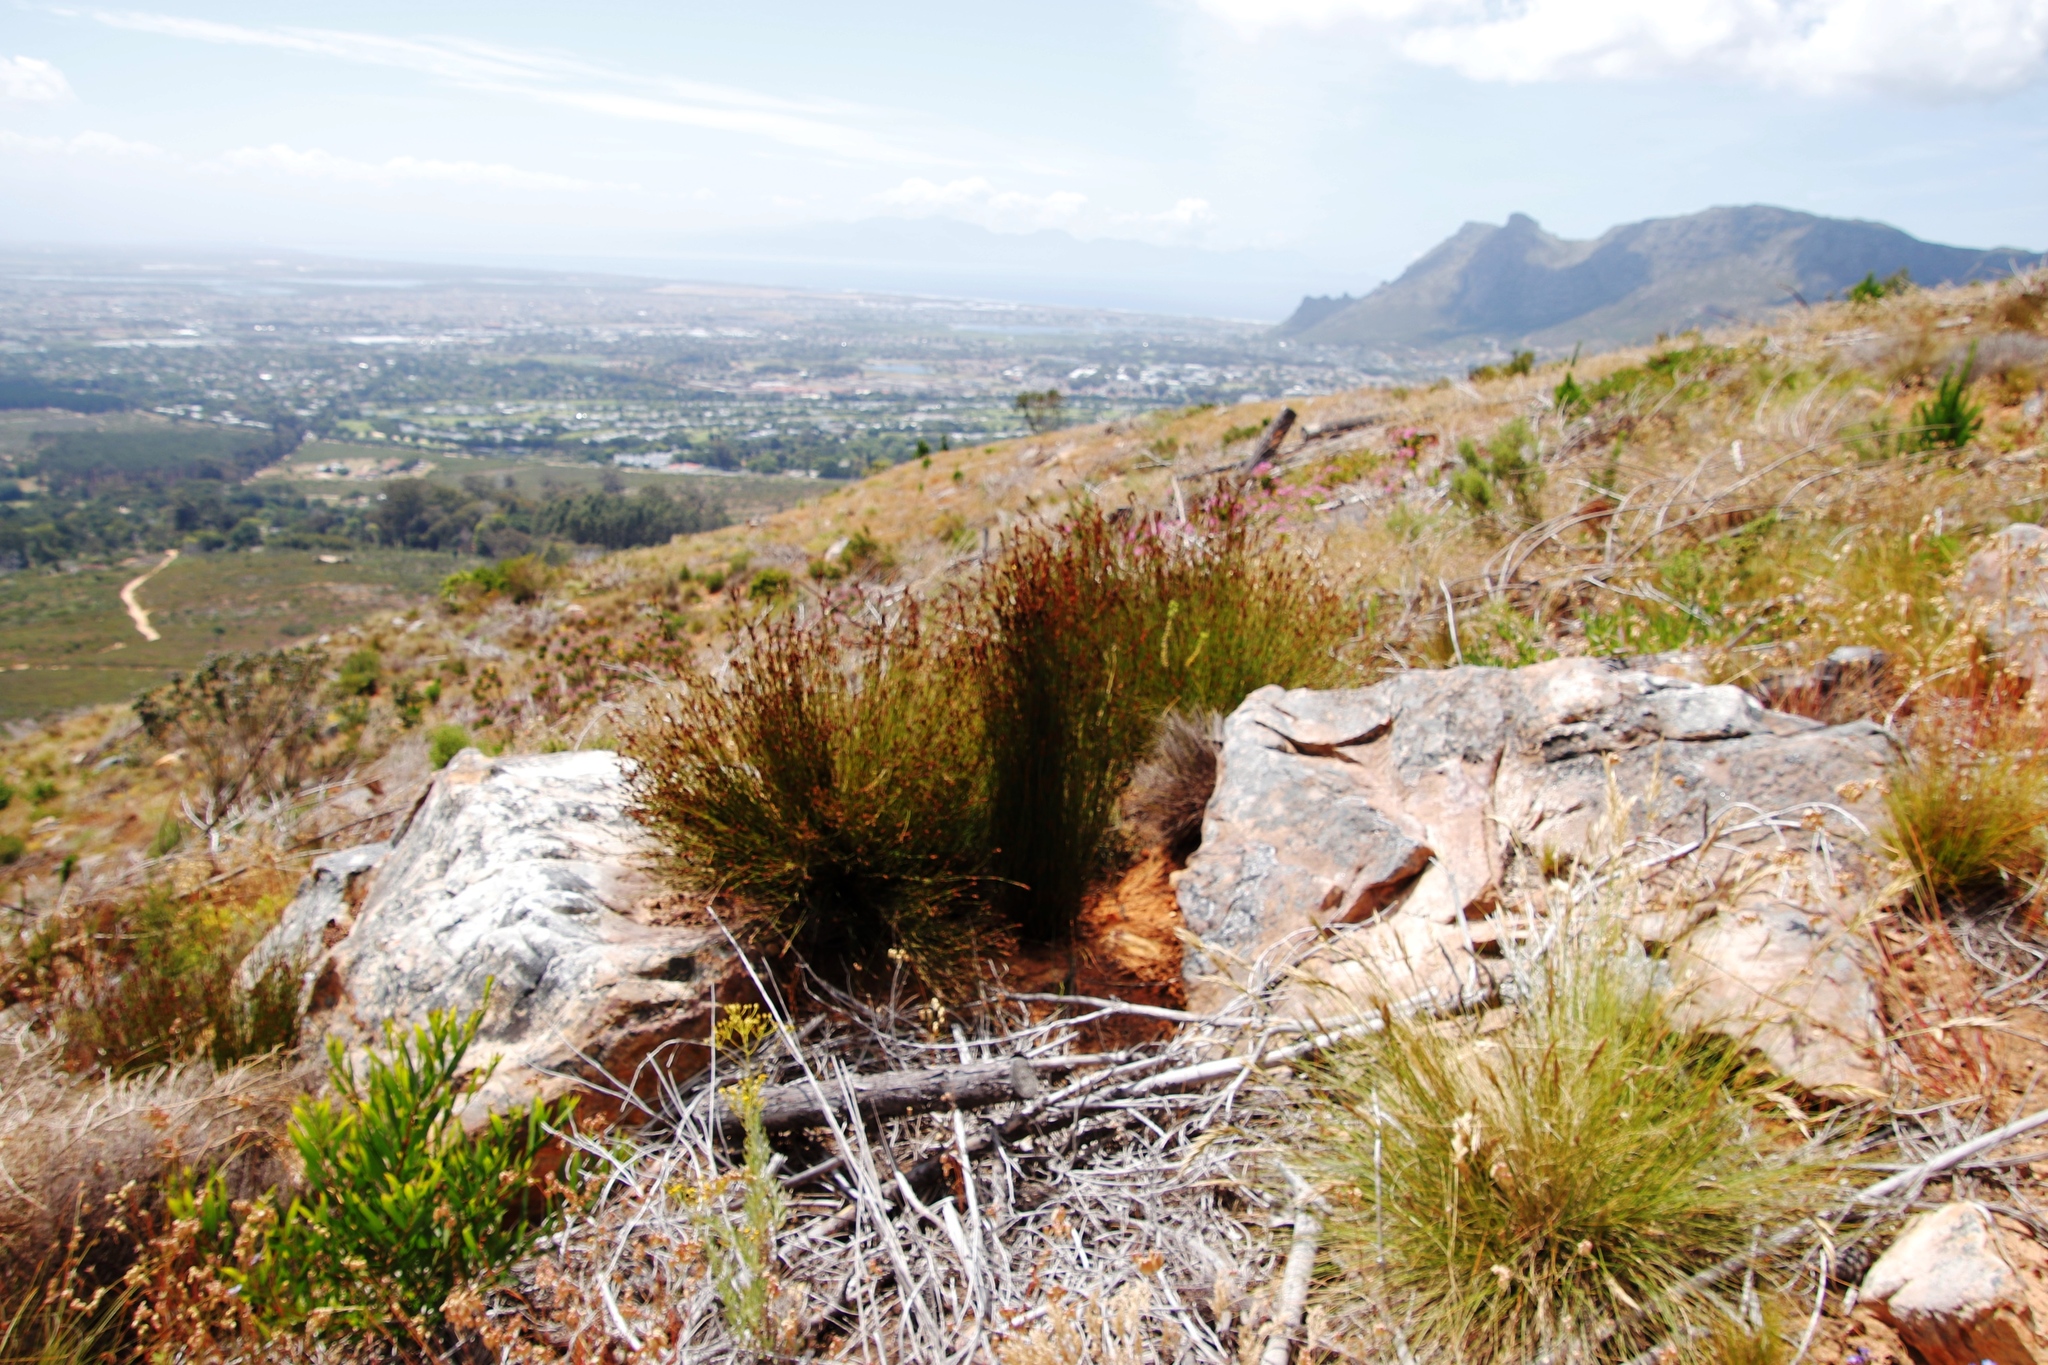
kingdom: Plantae
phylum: Tracheophyta
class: Liliopsida
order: Poales
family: Restionaceae
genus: Restio
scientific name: Restio capensis
